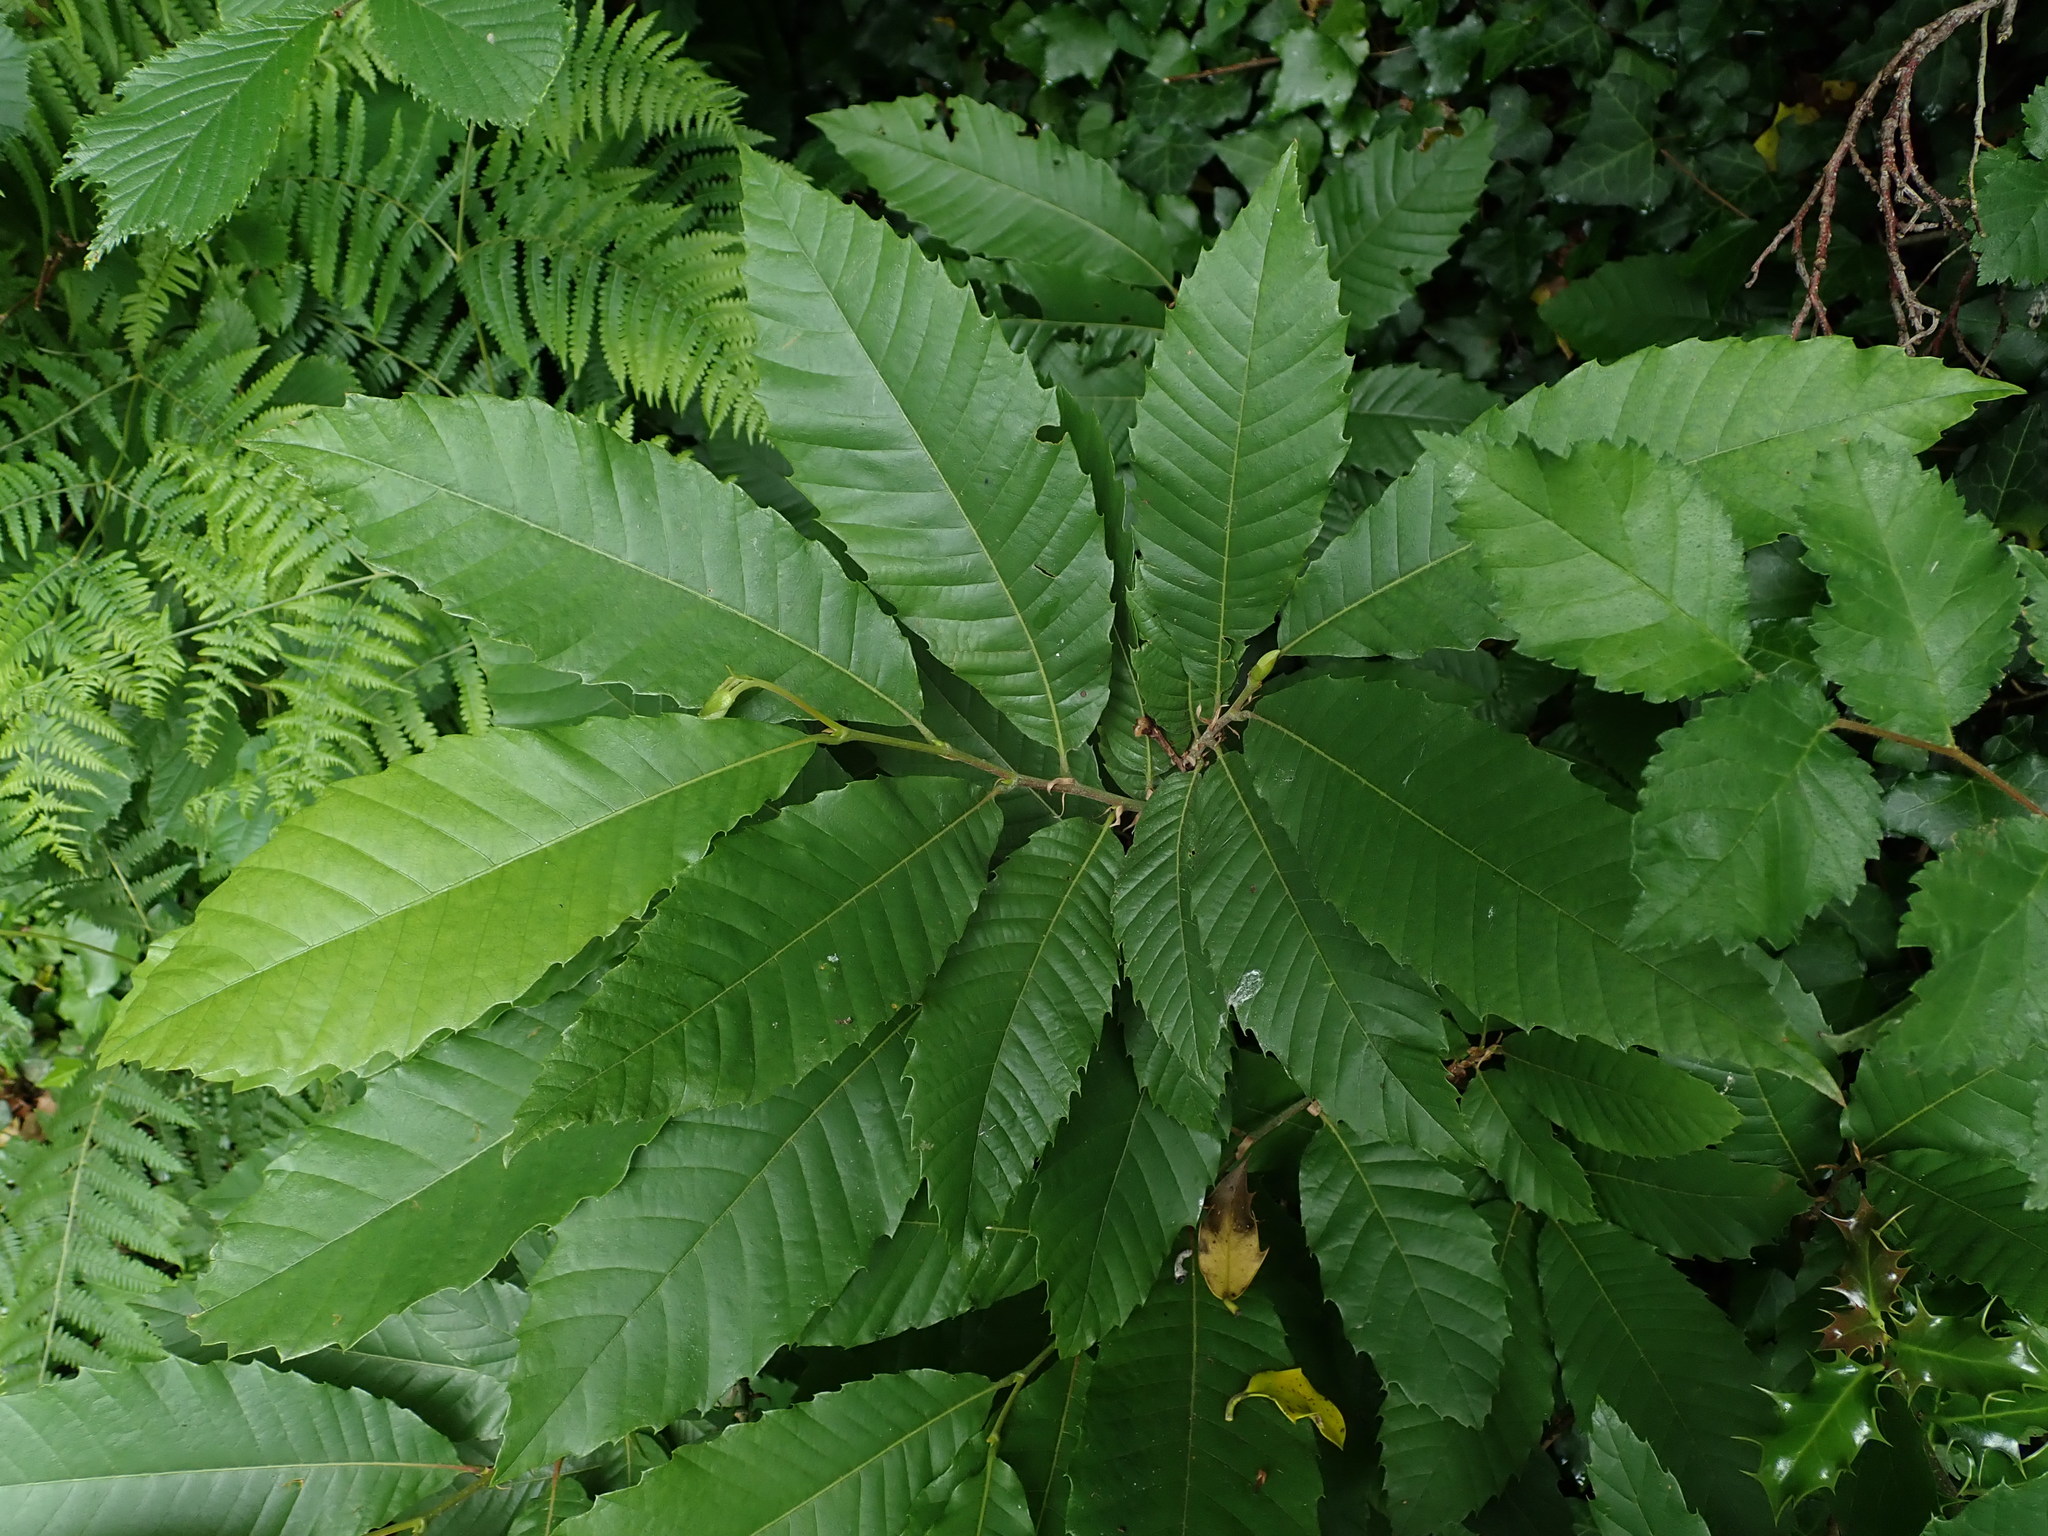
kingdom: Plantae
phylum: Tracheophyta
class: Magnoliopsida
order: Fagales
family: Fagaceae
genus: Castanea
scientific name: Castanea sativa
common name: Sweet chestnut
